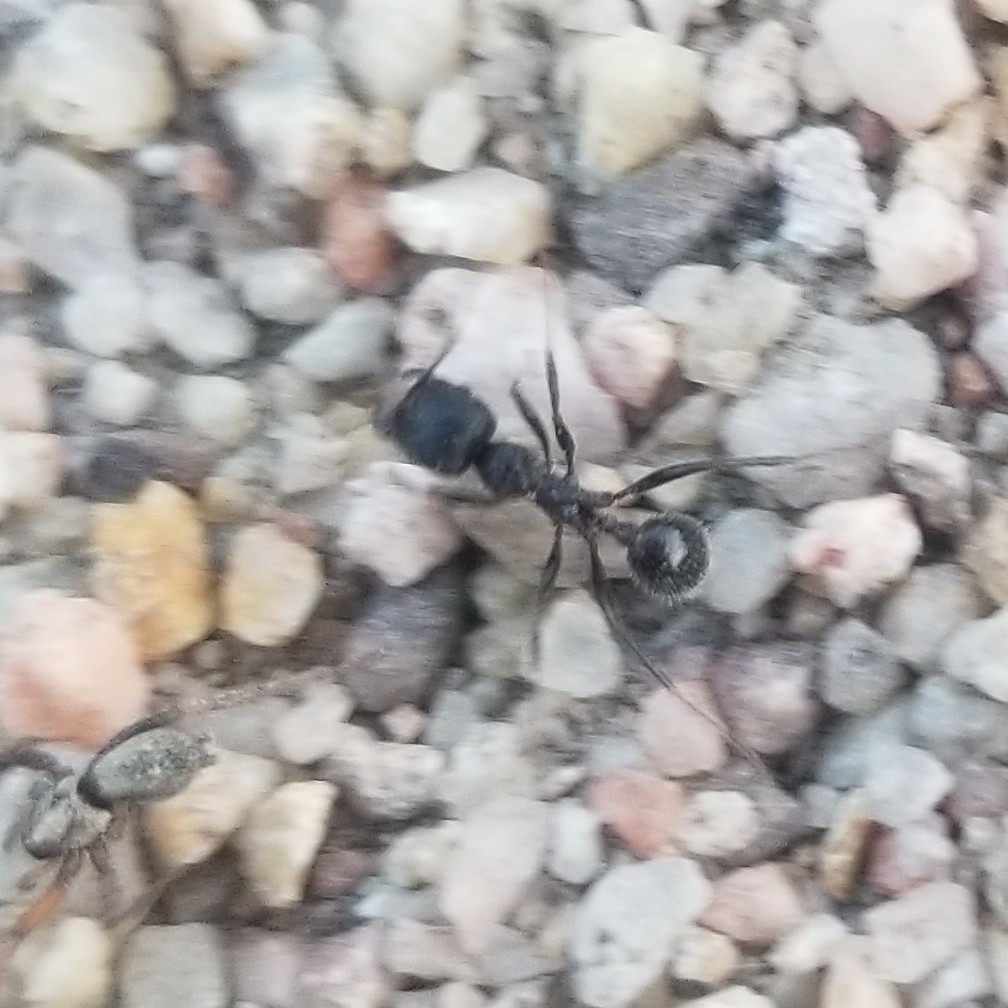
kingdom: Animalia
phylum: Arthropoda
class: Insecta
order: Hymenoptera
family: Formicidae
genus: Veromessor
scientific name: Veromessor andrei
